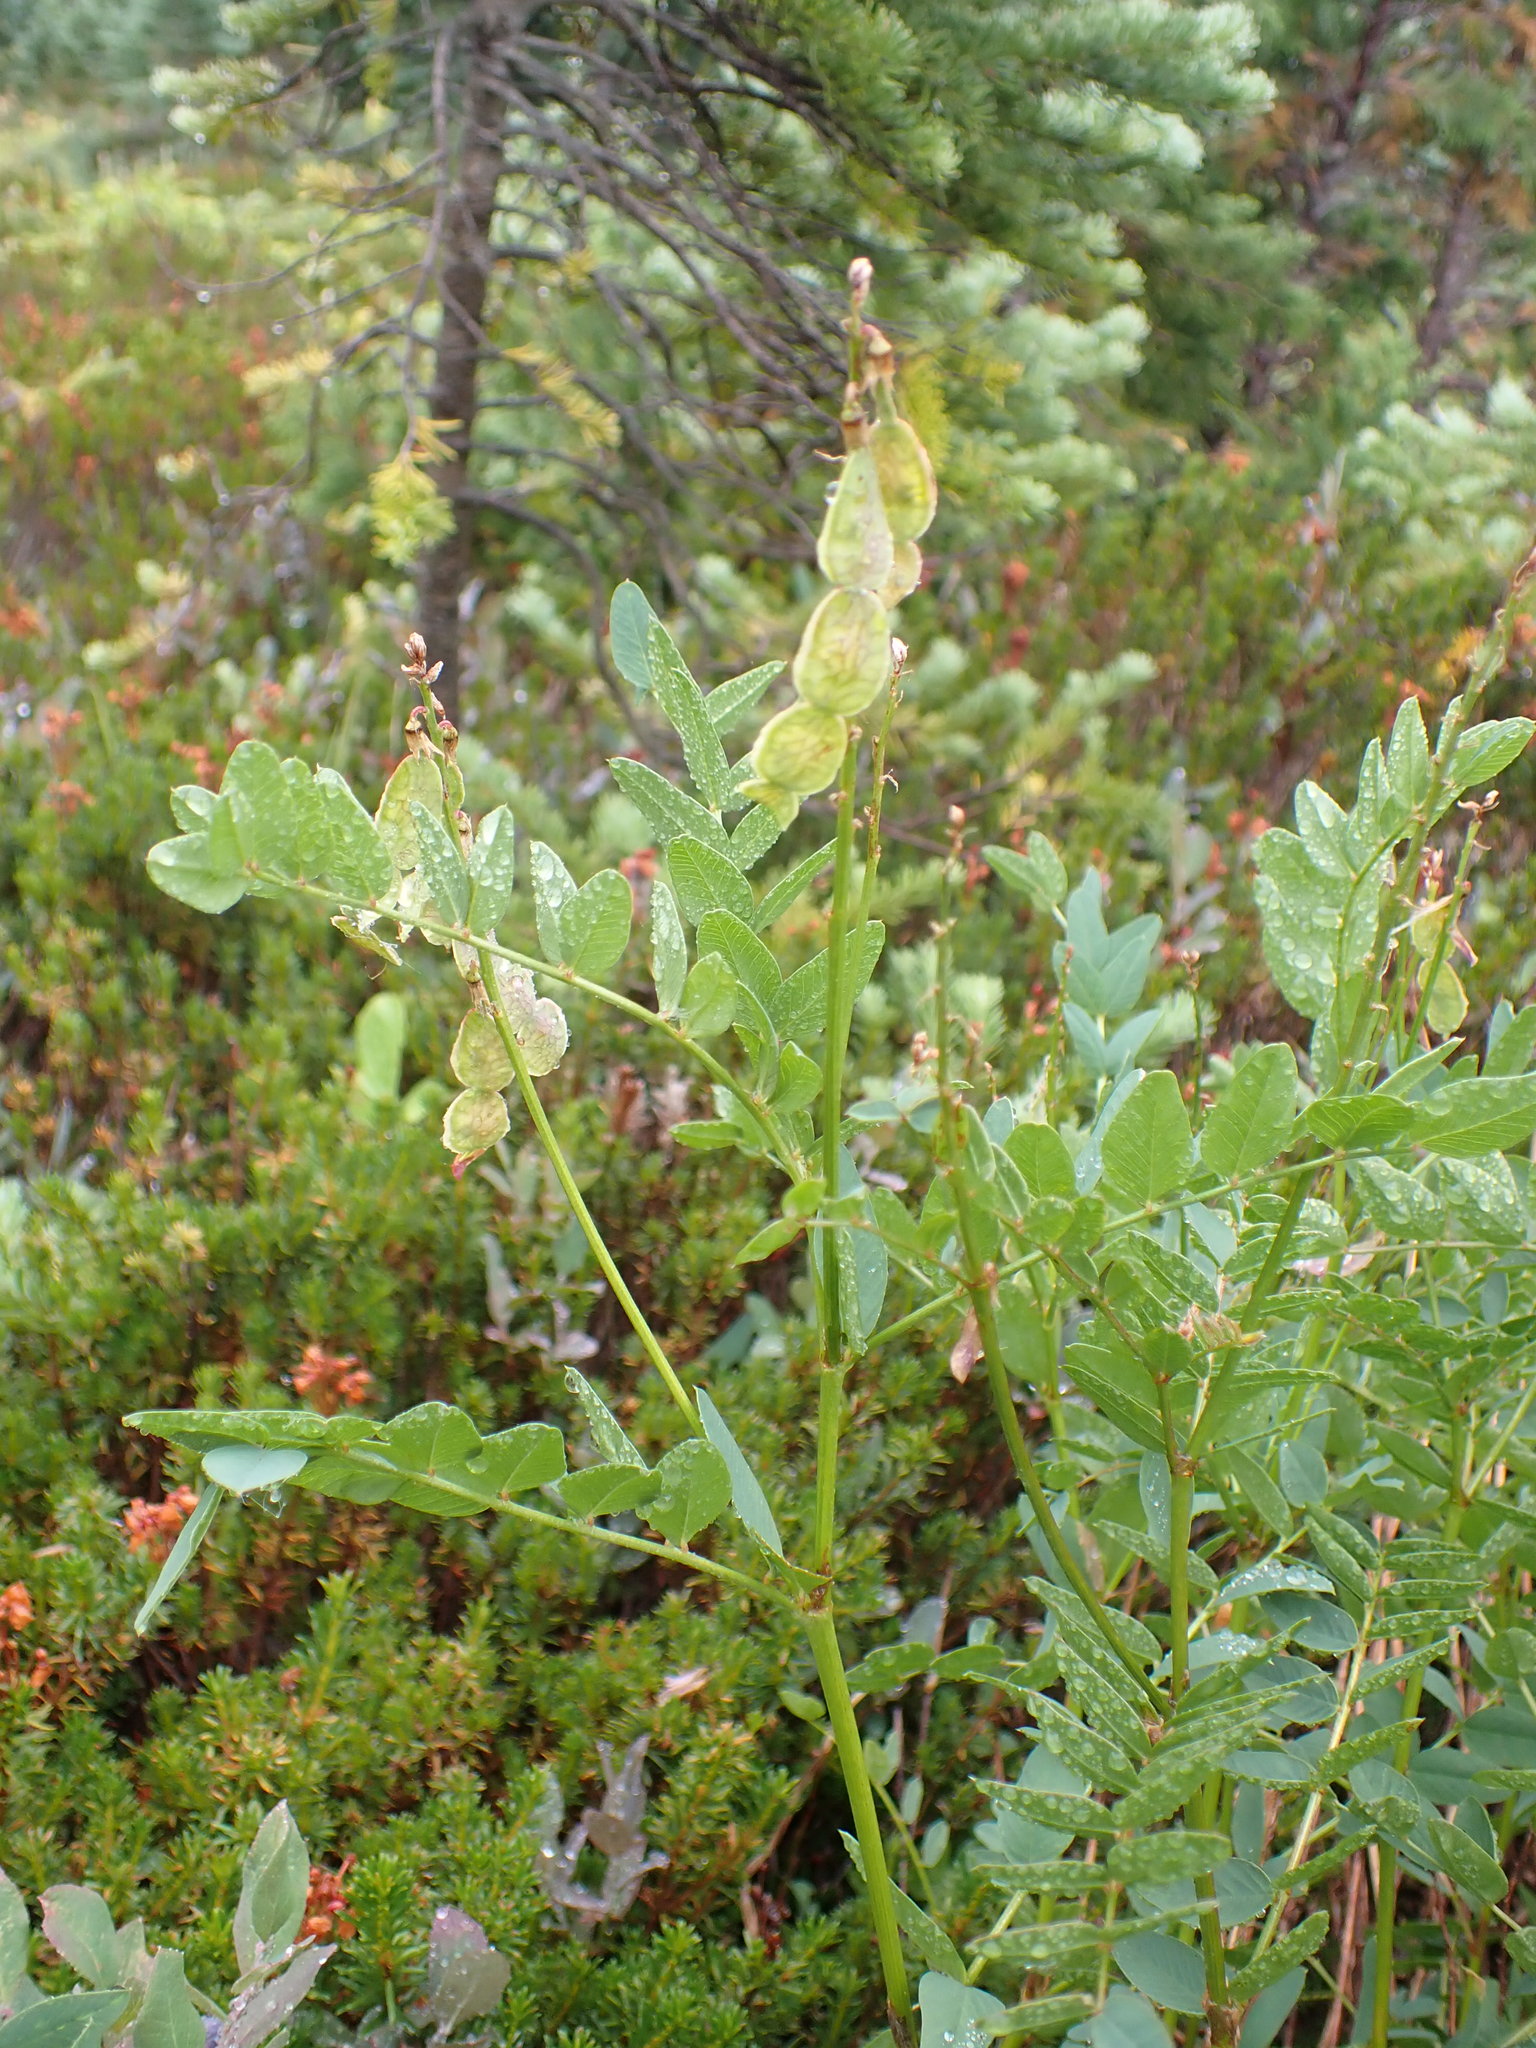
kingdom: Plantae
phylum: Tracheophyta
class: Magnoliopsida
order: Fabales
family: Fabaceae
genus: Hedysarum
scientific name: Hedysarum occidentale
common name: Western hedysarum
